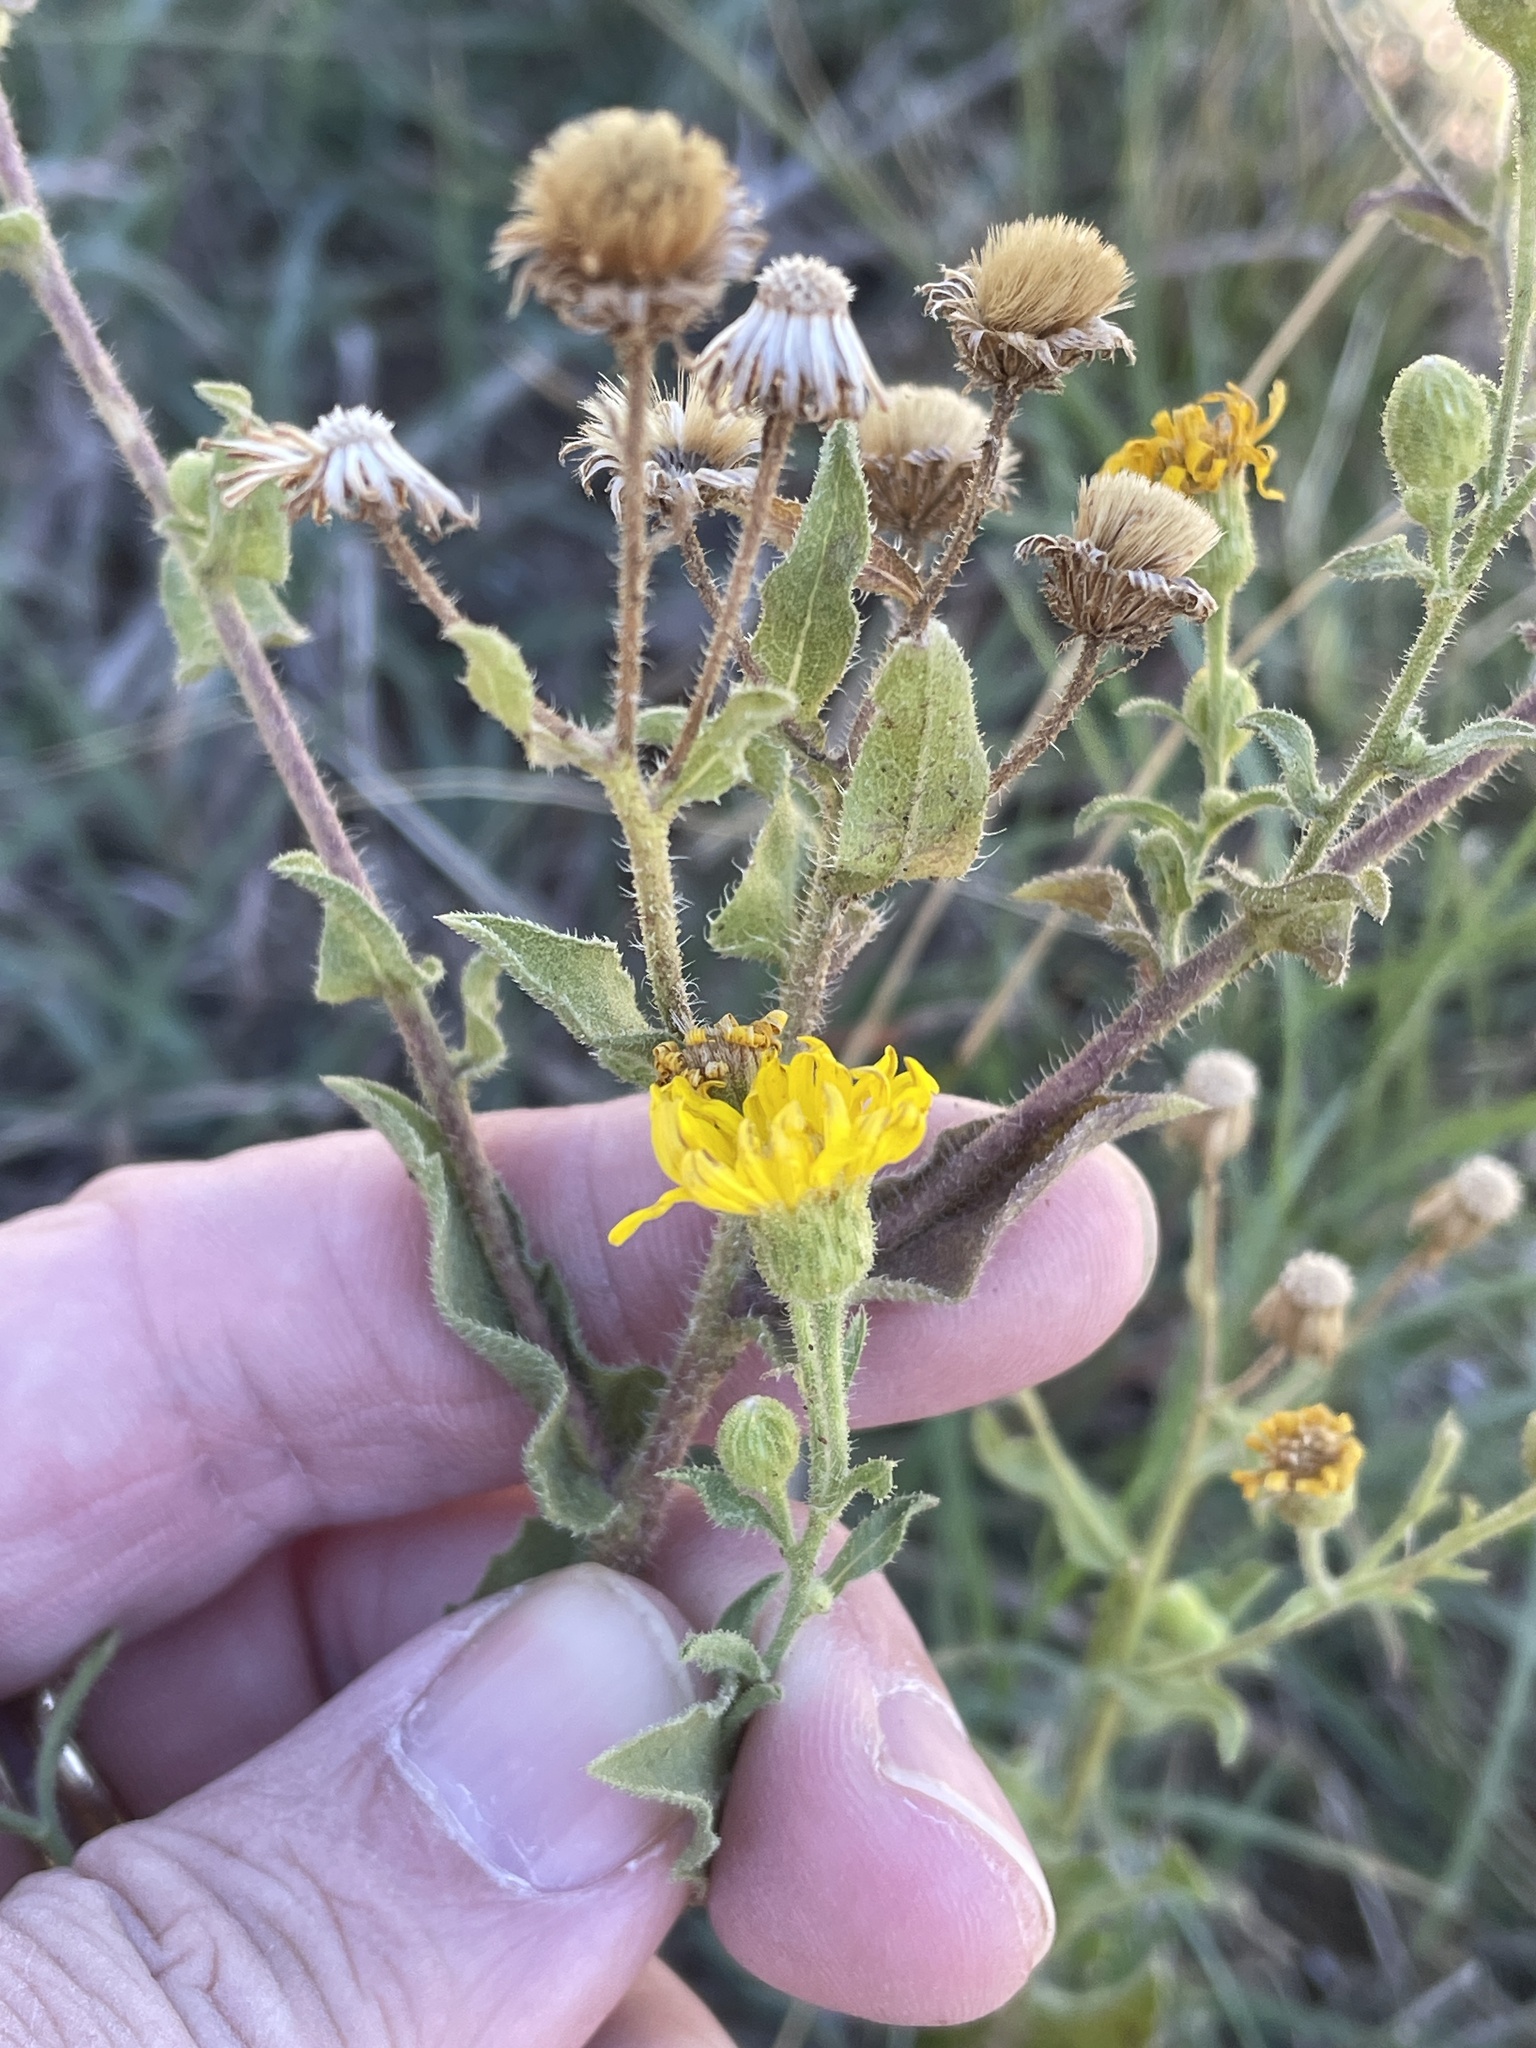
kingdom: Plantae
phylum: Tracheophyta
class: Magnoliopsida
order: Asterales
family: Asteraceae
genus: Heterotheca
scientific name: Heterotheca subaxillaris
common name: Camphorweed
